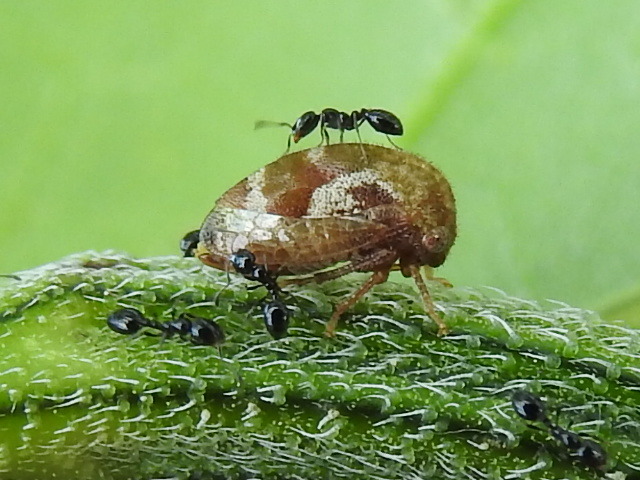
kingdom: Animalia
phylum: Arthropoda
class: Insecta
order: Hemiptera
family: Membracidae
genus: Vanduzea
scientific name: Vanduzea segmentata
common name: Membracid bug
